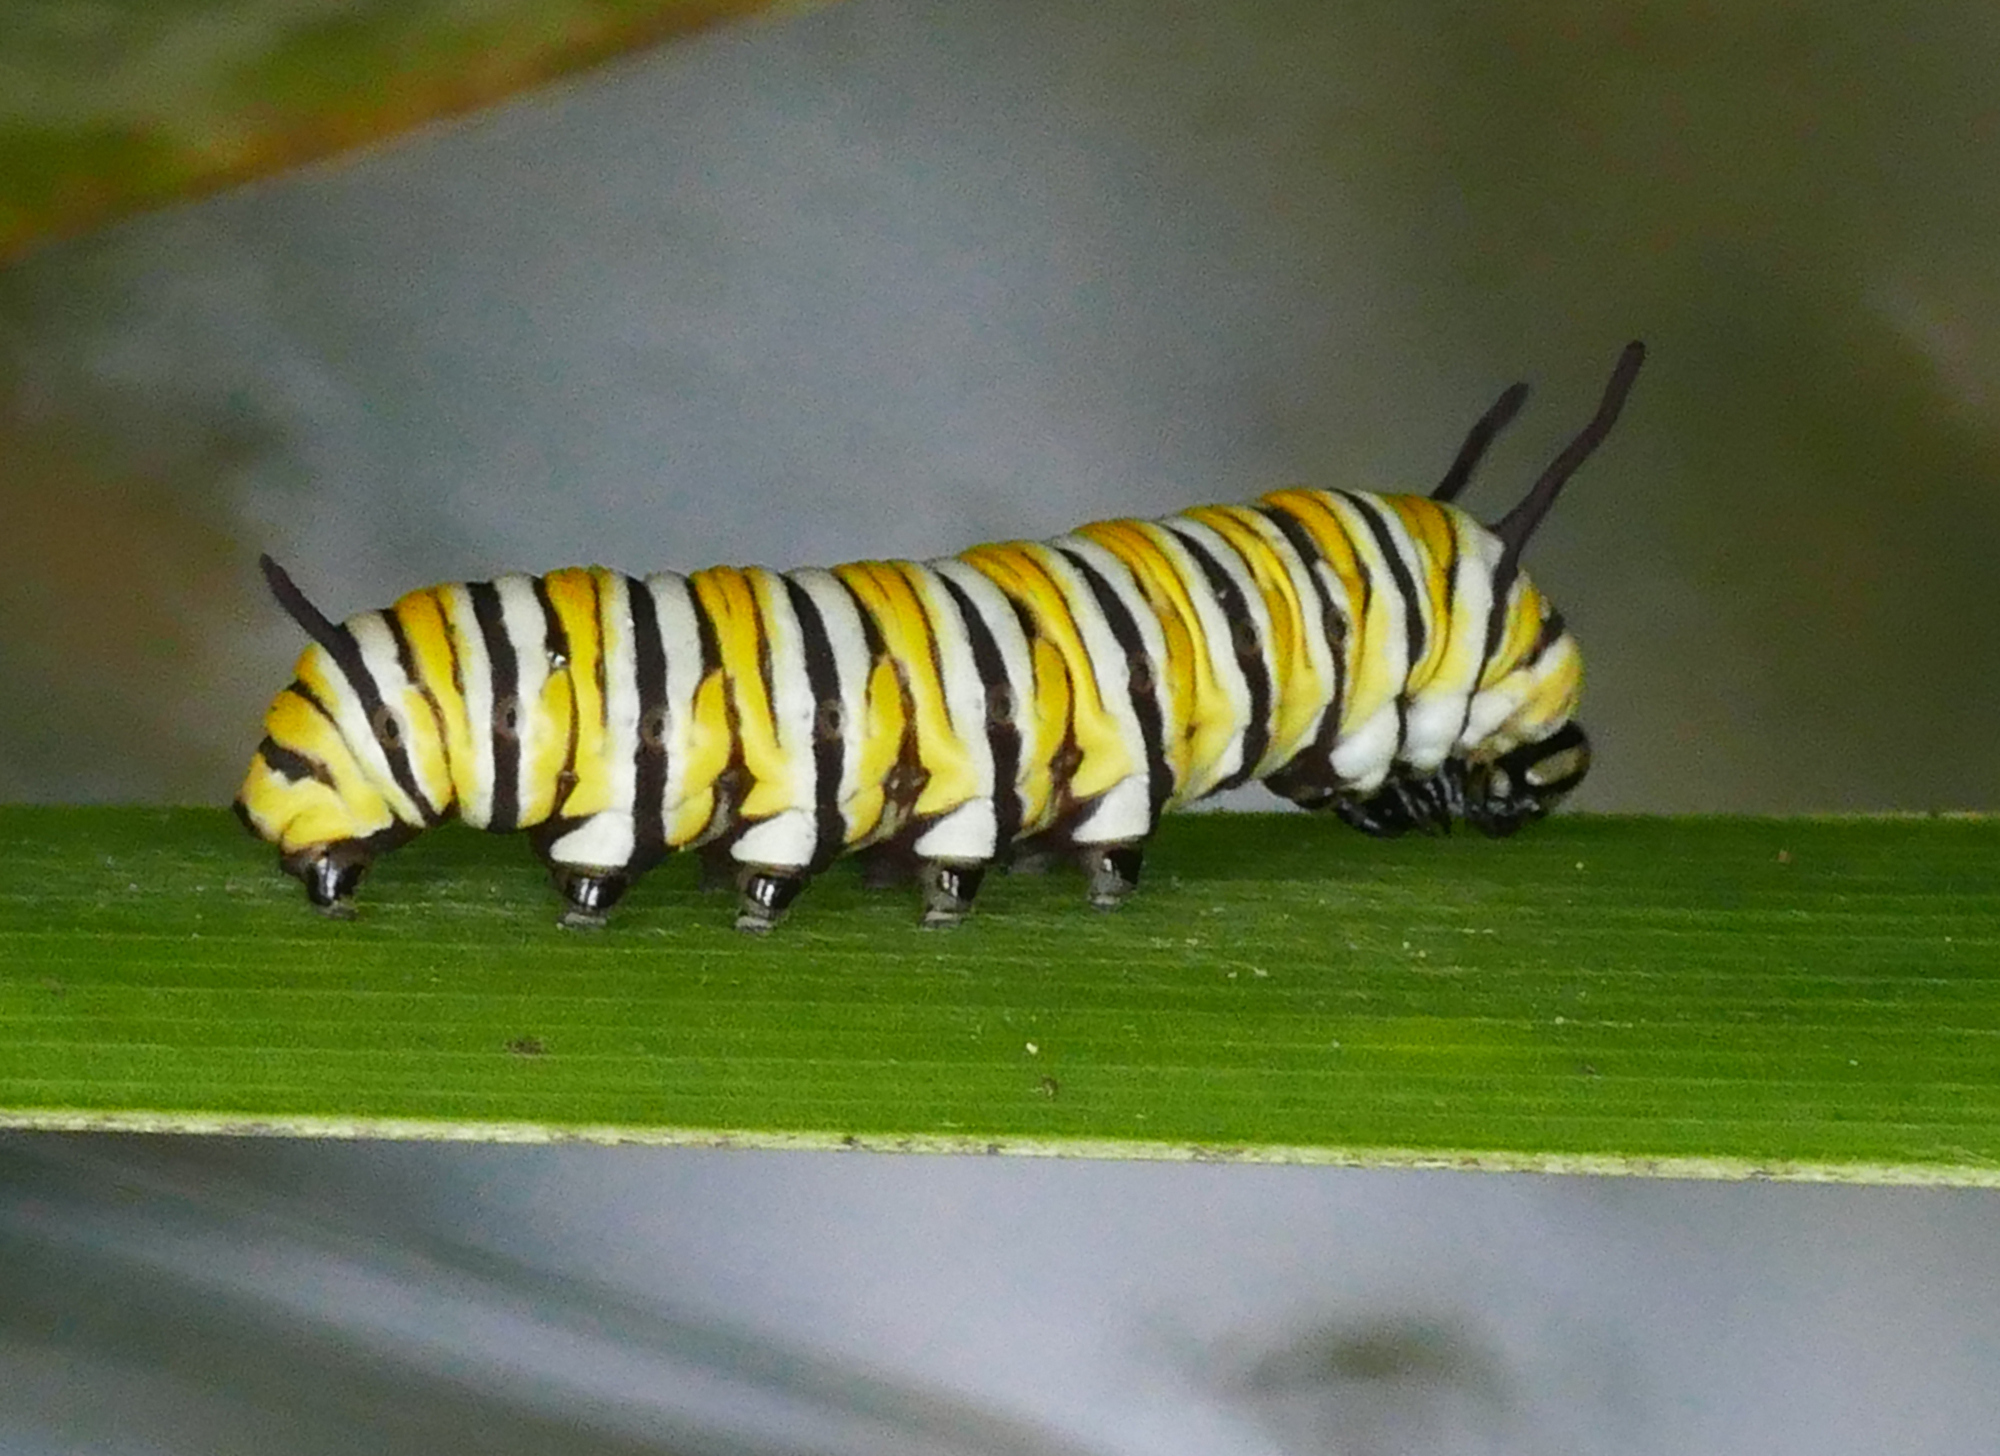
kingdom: Animalia
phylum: Arthropoda
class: Insecta
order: Lepidoptera
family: Nymphalidae
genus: Danaus
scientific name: Danaus plexippus
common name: Monarch
